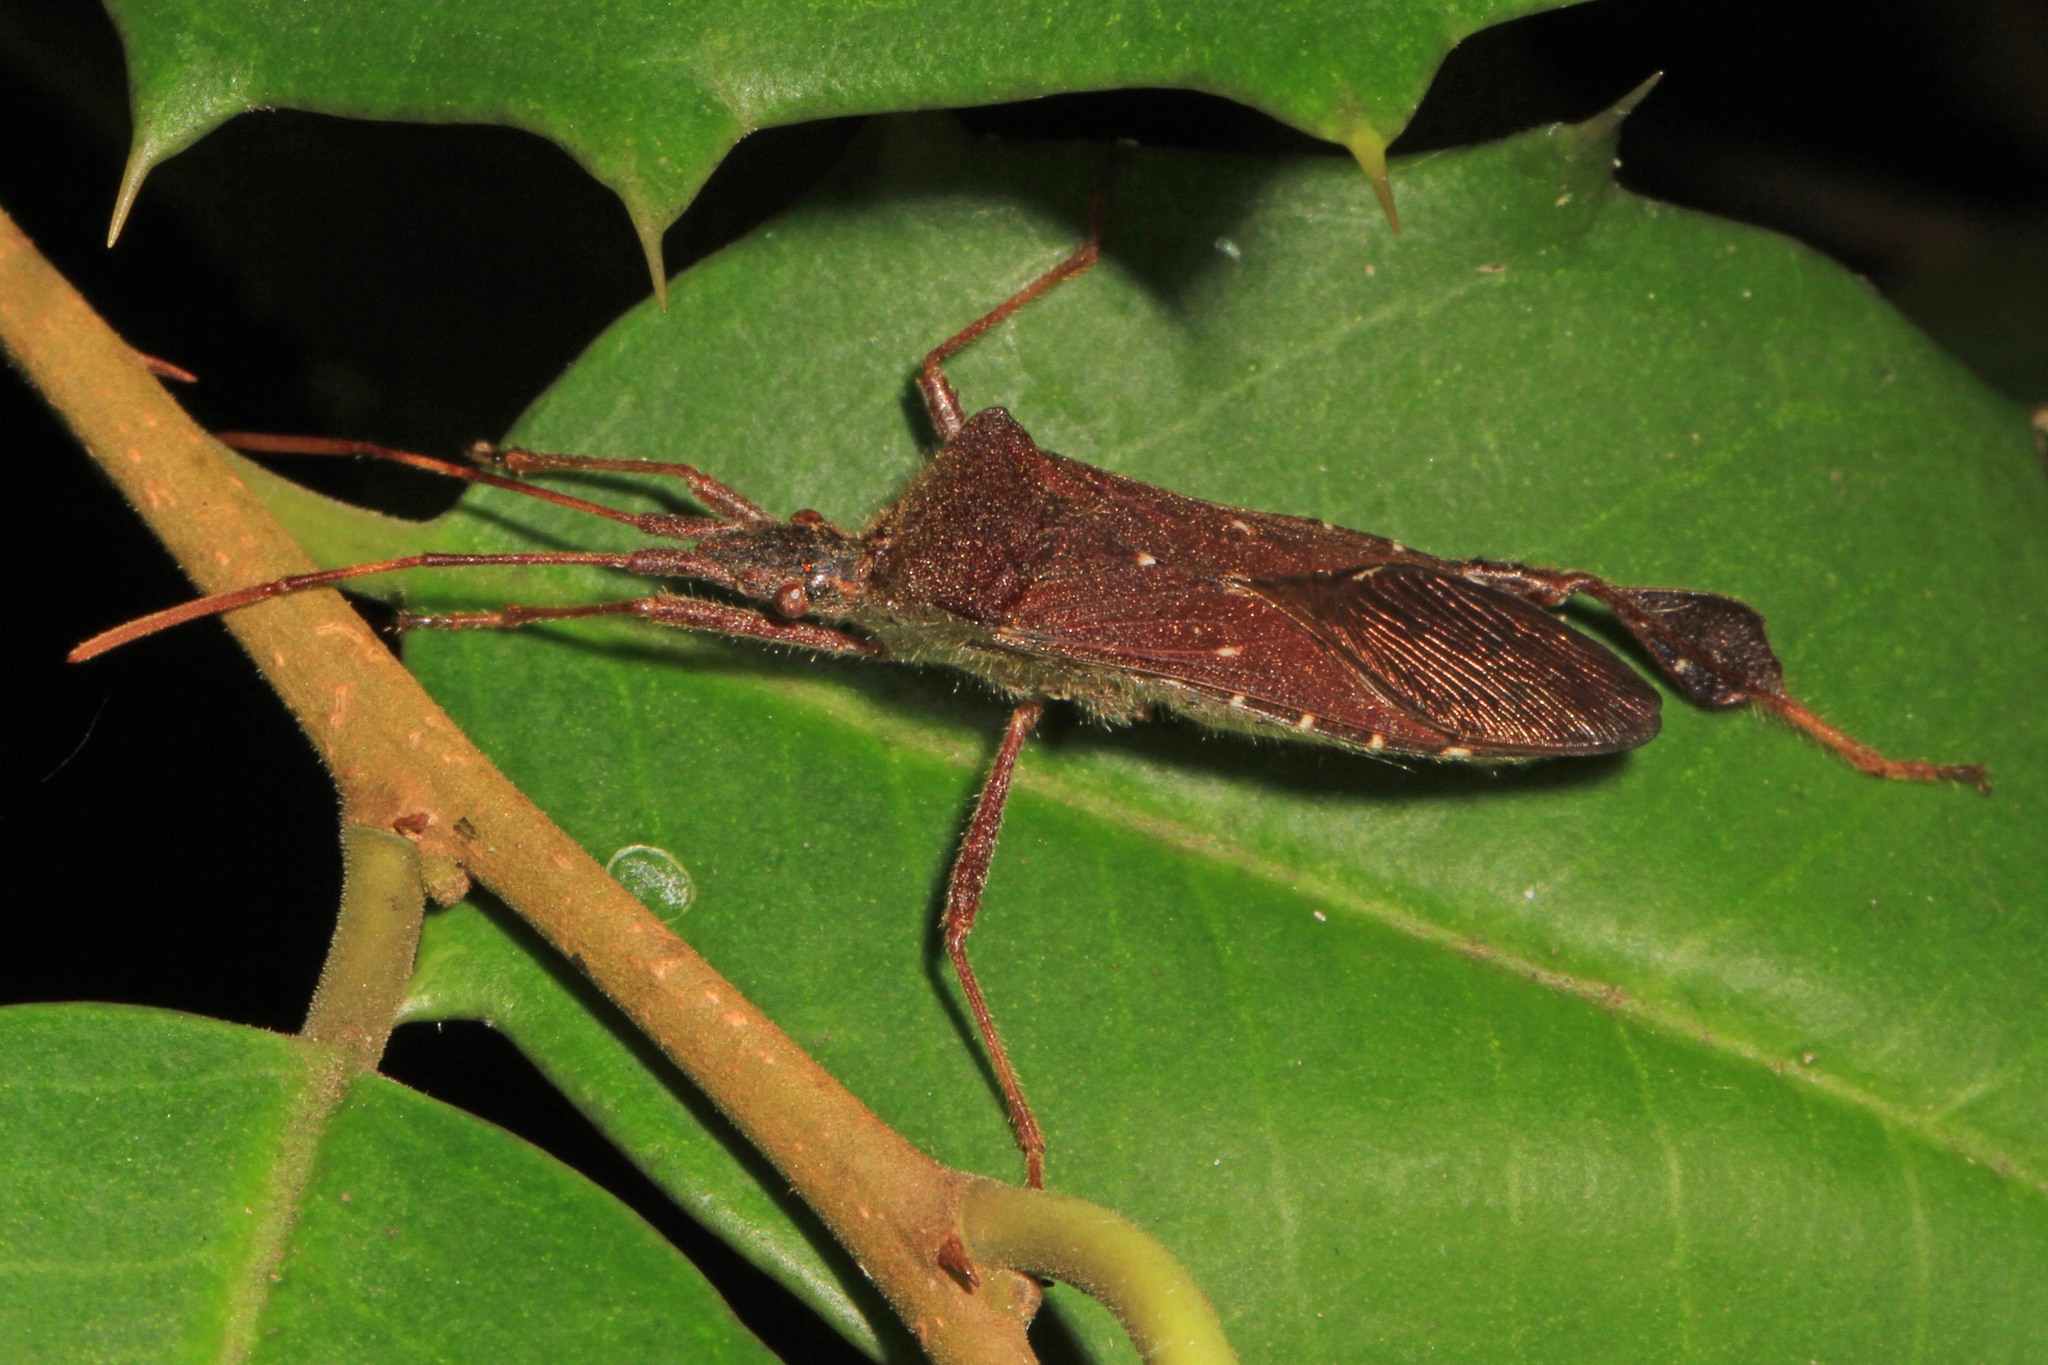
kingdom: Animalia
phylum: Arthropoda
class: Insecta
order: Hemiptera
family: Coreidae
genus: Leptoglossus
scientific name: Leptoglossus oppositus
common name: Northern leaf-footed bug
